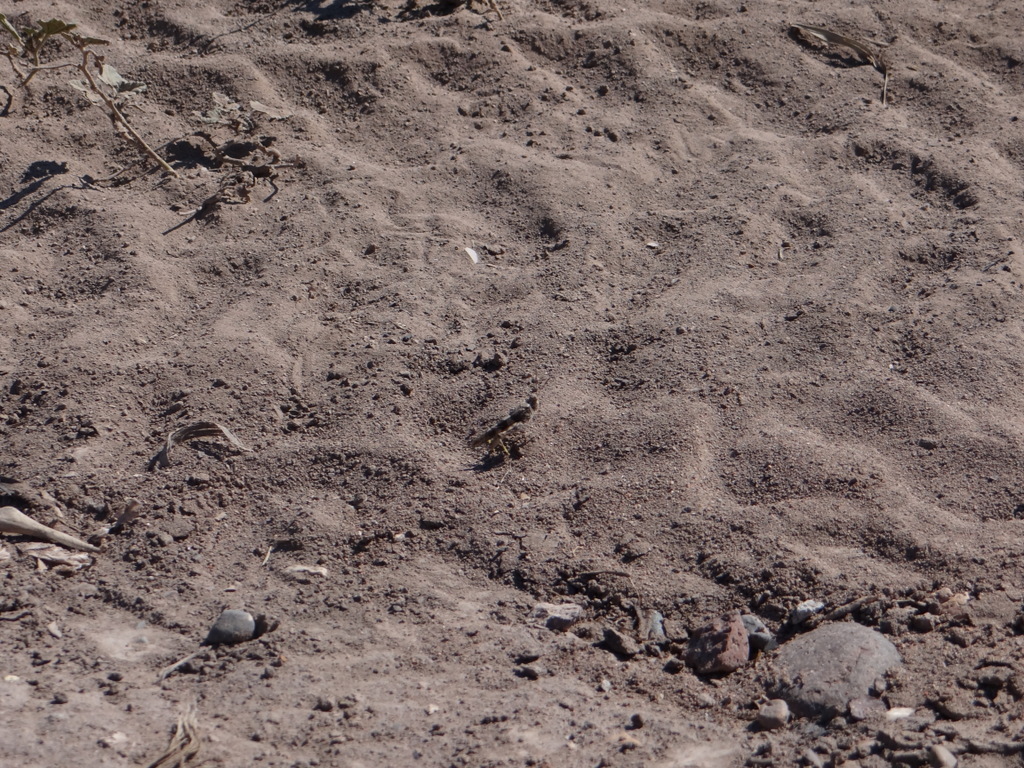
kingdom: Animalia
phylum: Arthropoda
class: Insecta
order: Orthoptera
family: Acrididae
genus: Trimerotropis
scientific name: Trimerotropis pallidipennis
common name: Pallid-winged grasshopper
